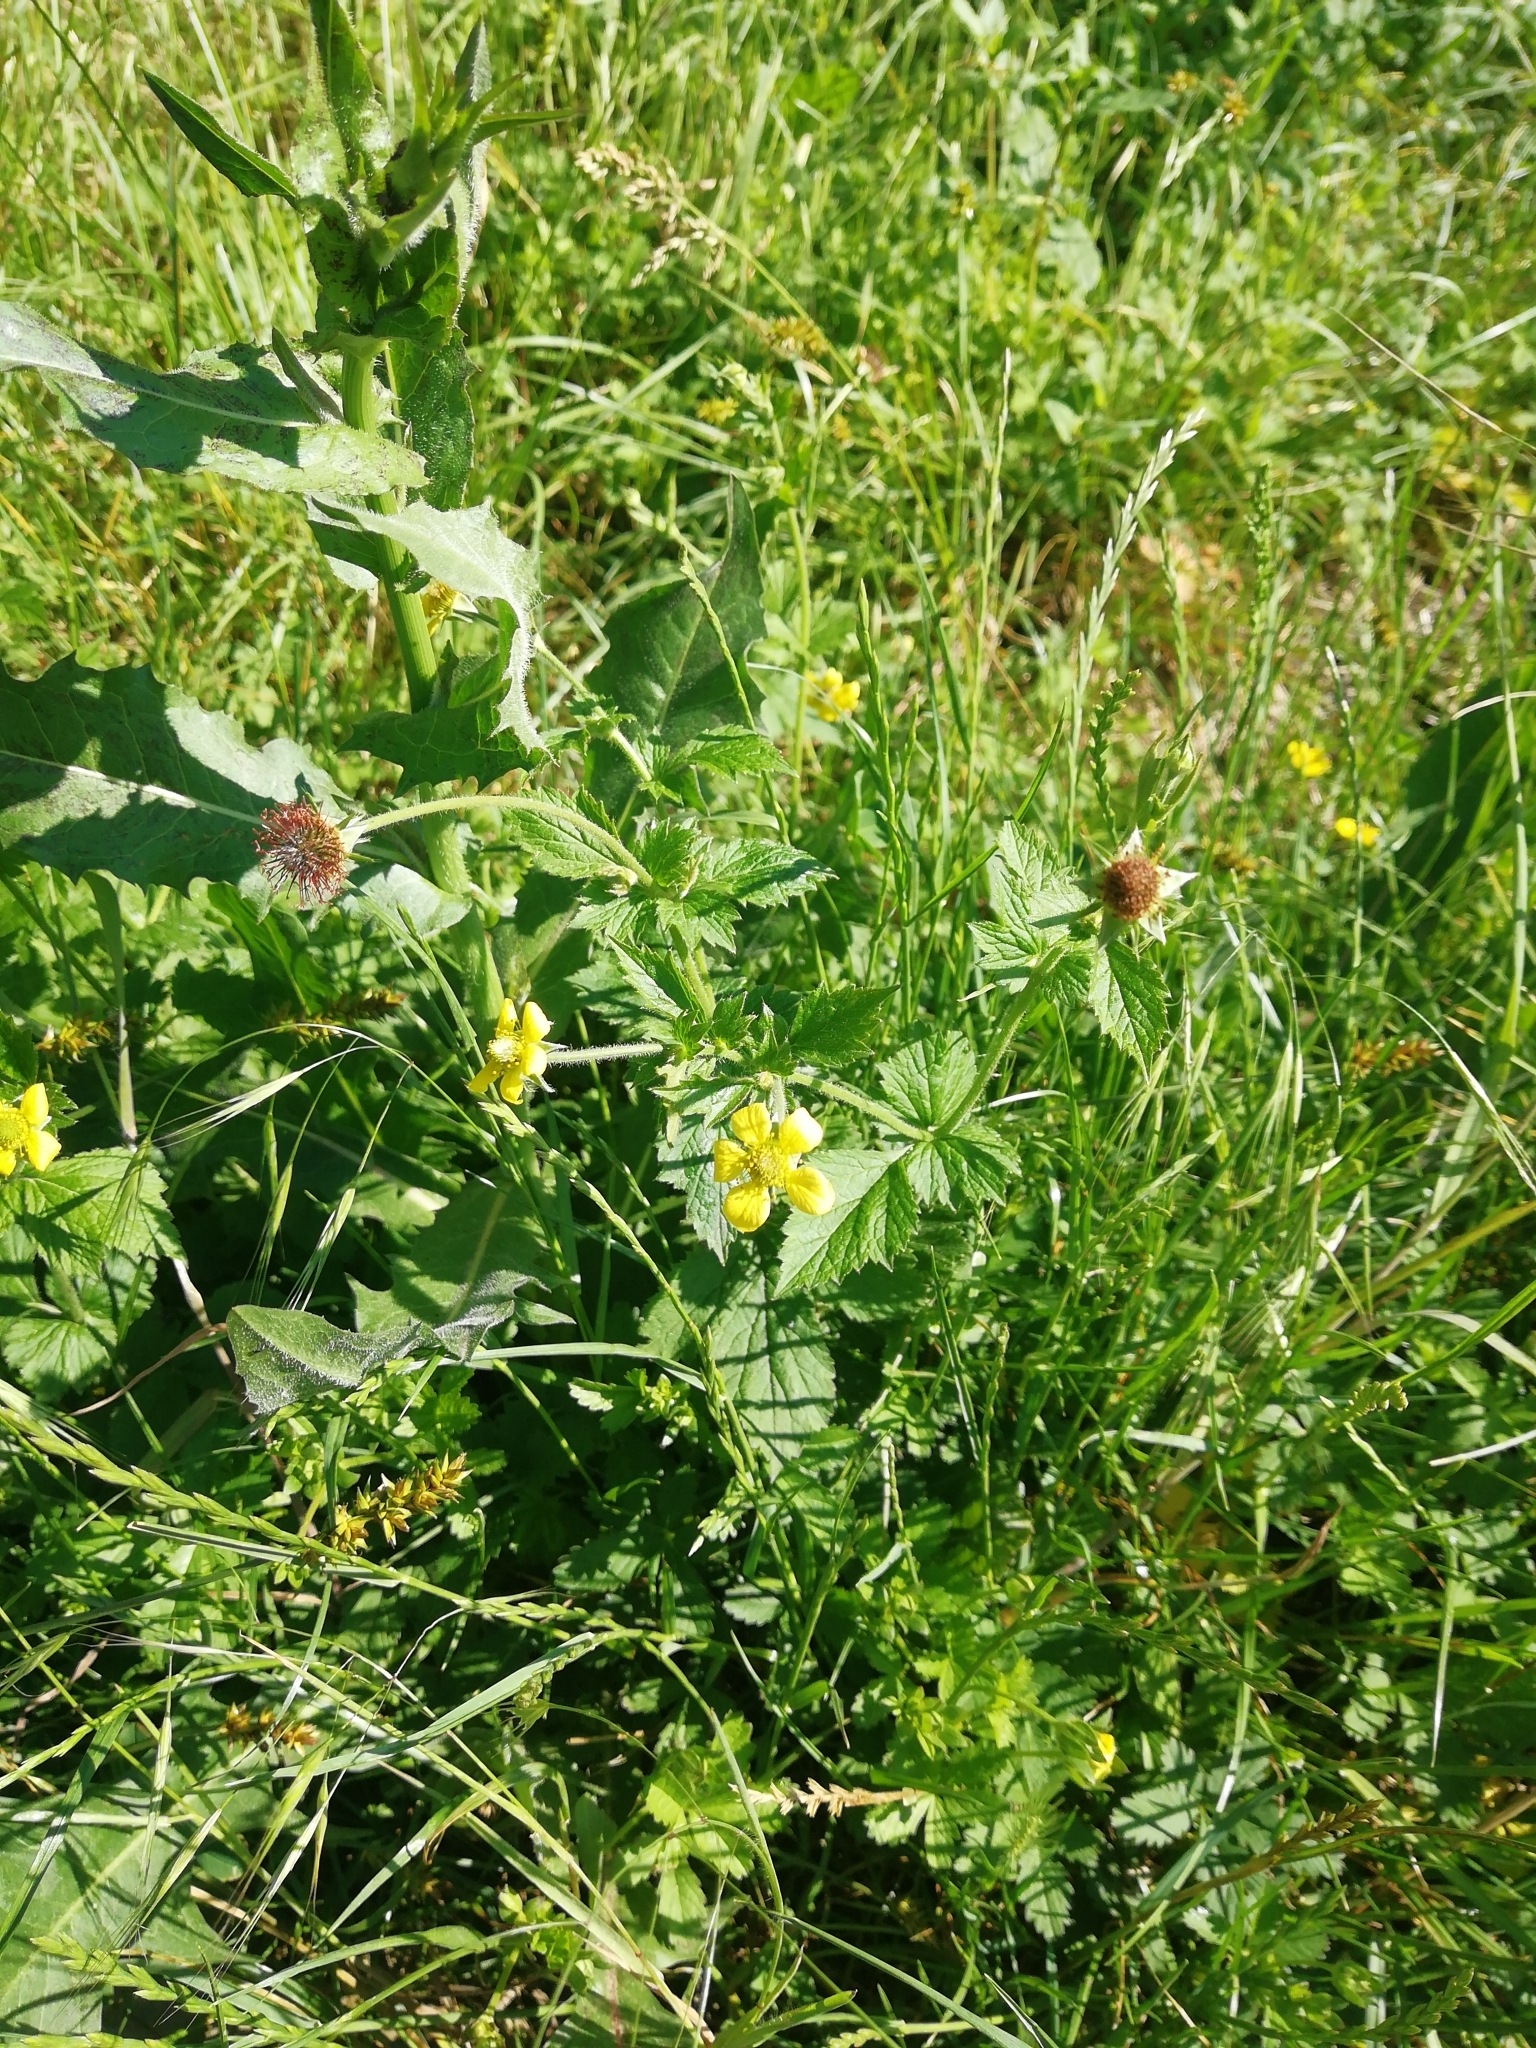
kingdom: Plantae
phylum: Tracheophyta
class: Magnoliopsida
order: Rosales
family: Rosaceae
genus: Geum
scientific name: Geum urbanum
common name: Wood avens
